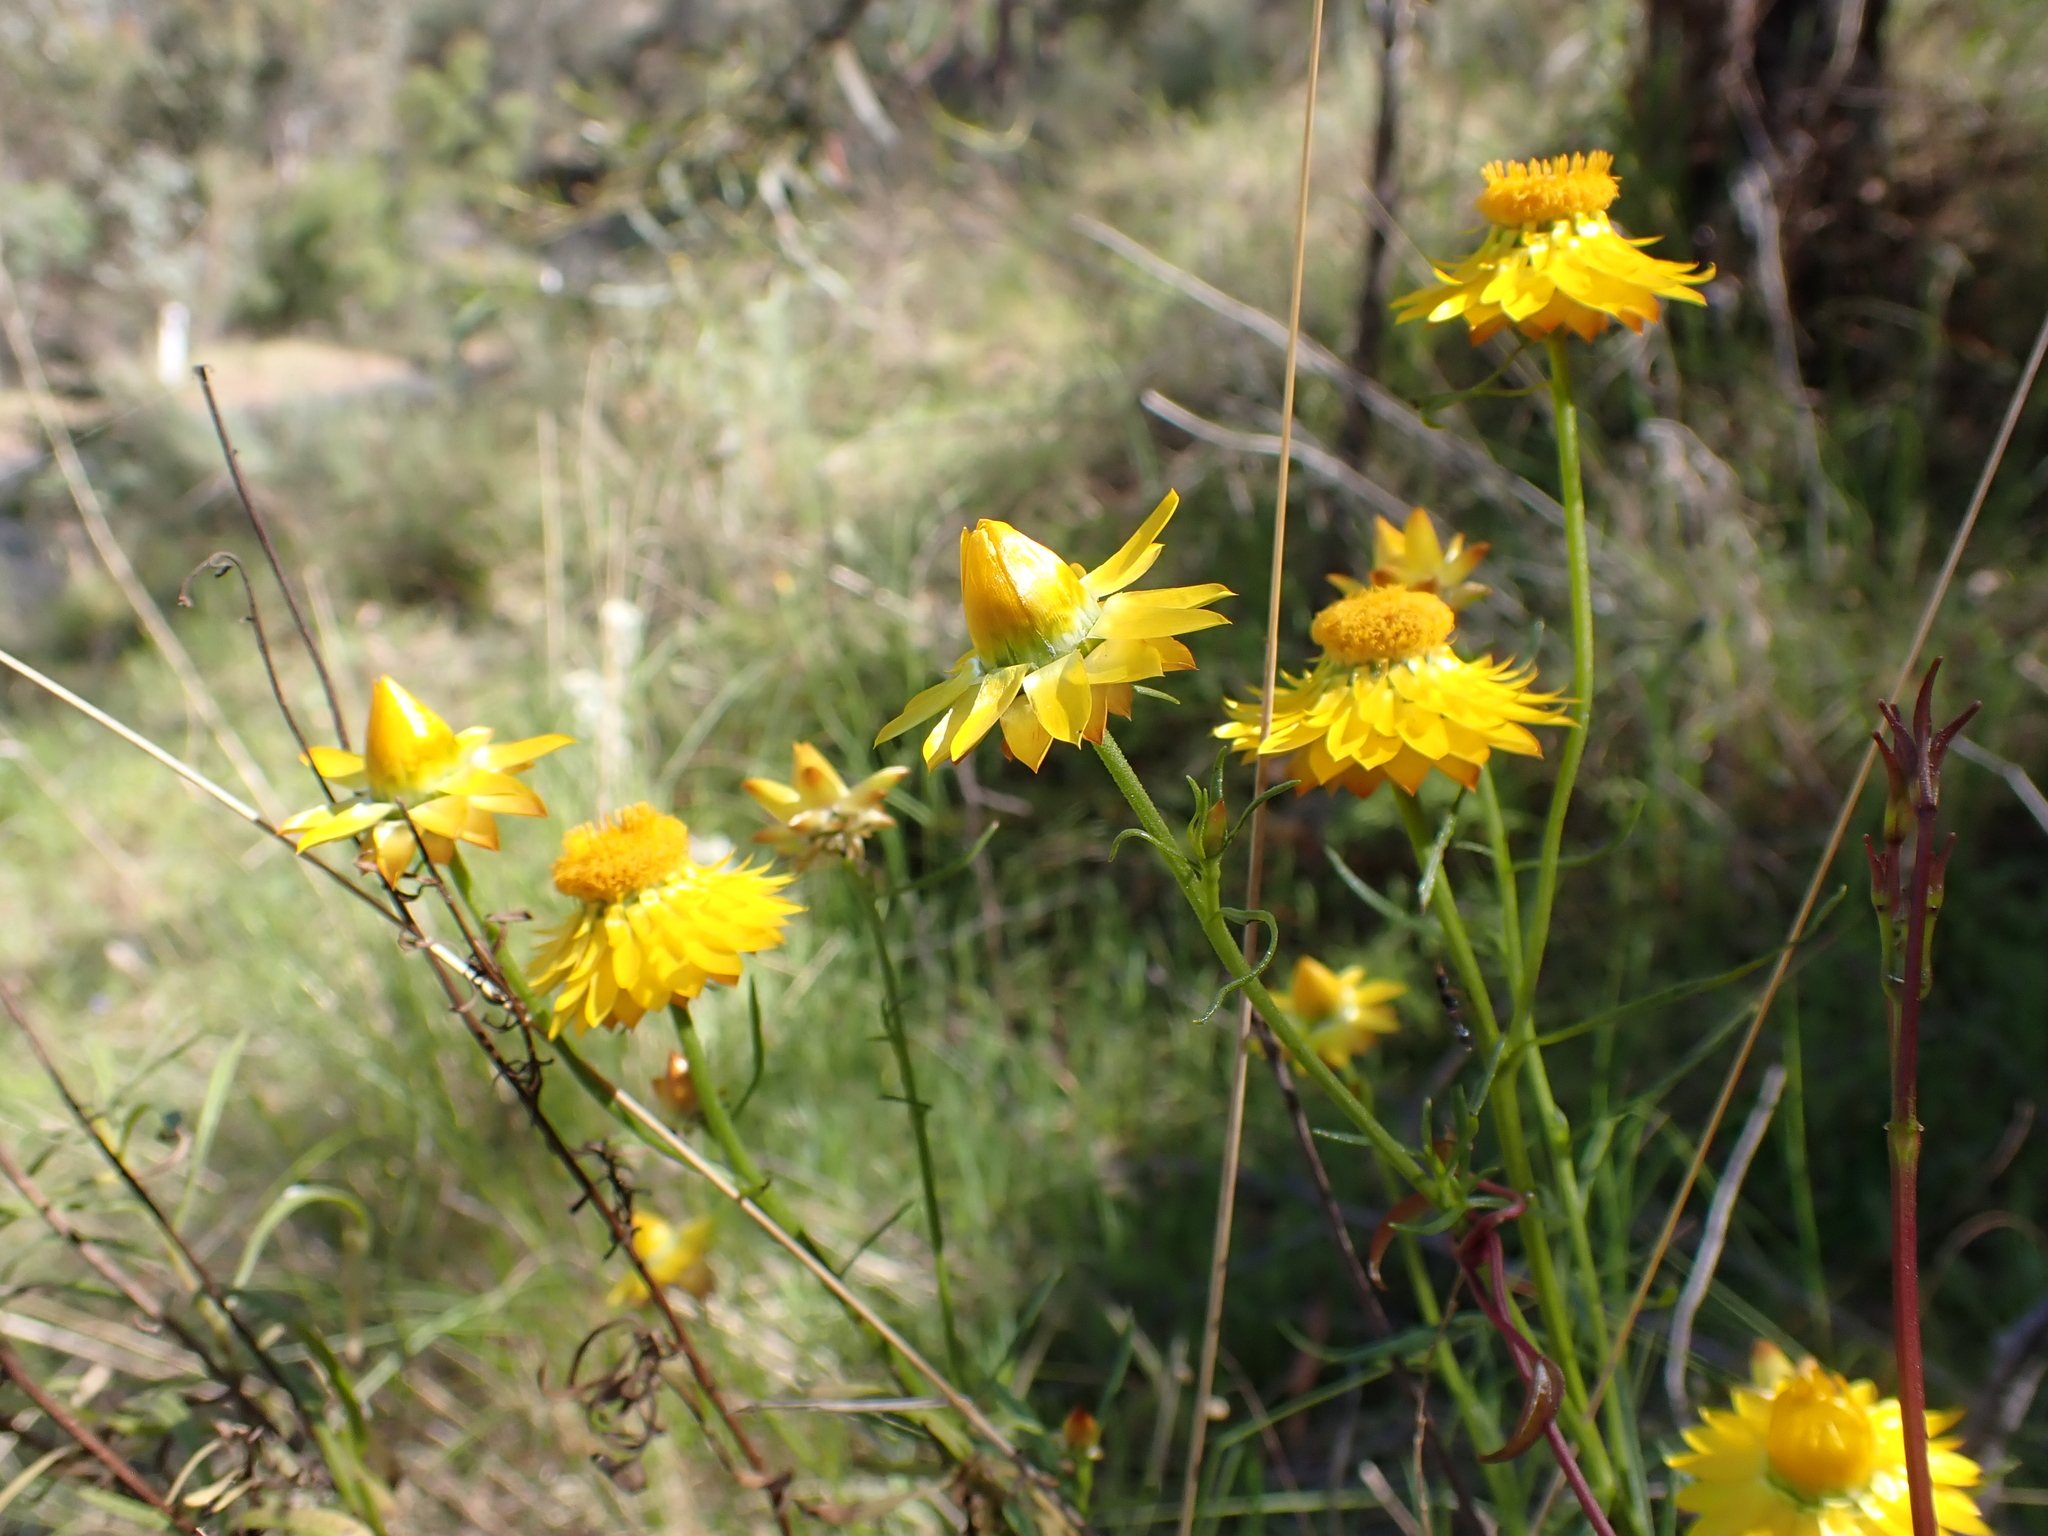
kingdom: Plantae
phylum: Tracheophyta
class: Magnoliopsida
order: Asterales
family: Asteraceae
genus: Xerochrysum
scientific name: Xerochrysum viscosum
